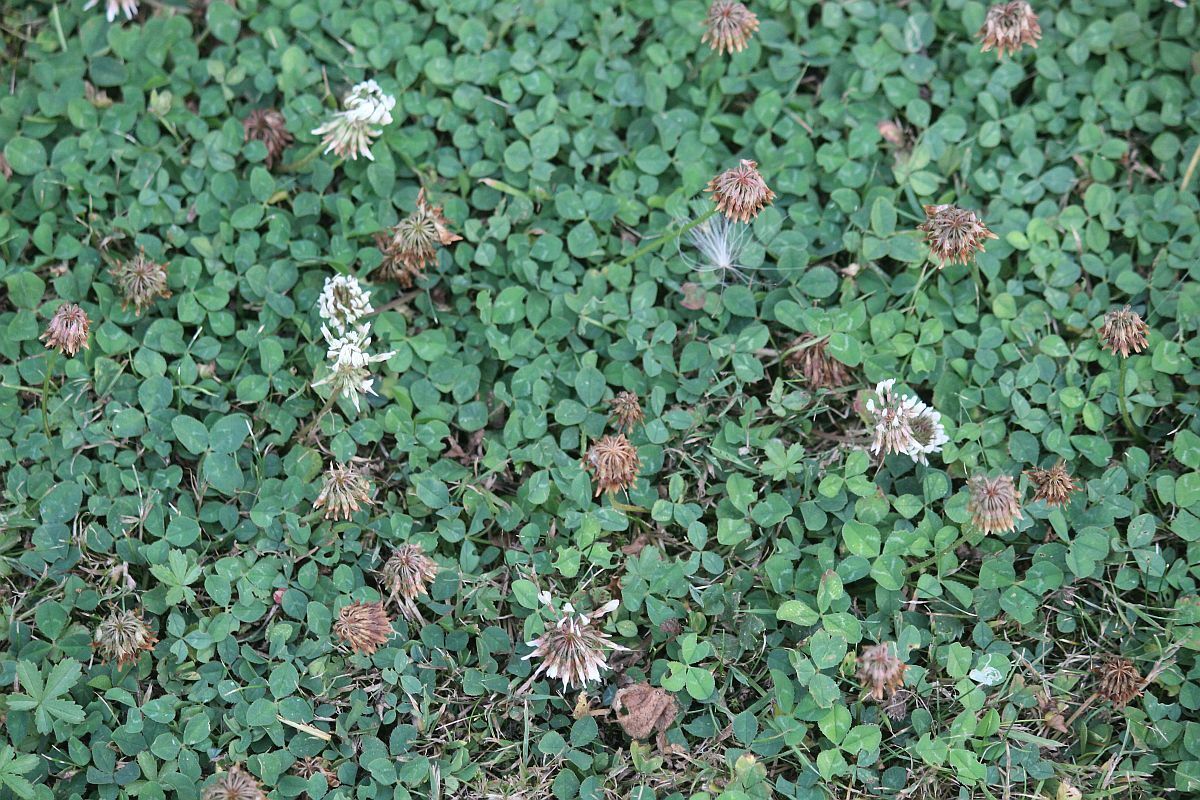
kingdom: Plantae
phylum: Tracheophyta
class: Magnoliopsida
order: Fabales
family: Fabaceae
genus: Trifolium
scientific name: Trifolium repens
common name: White clover
